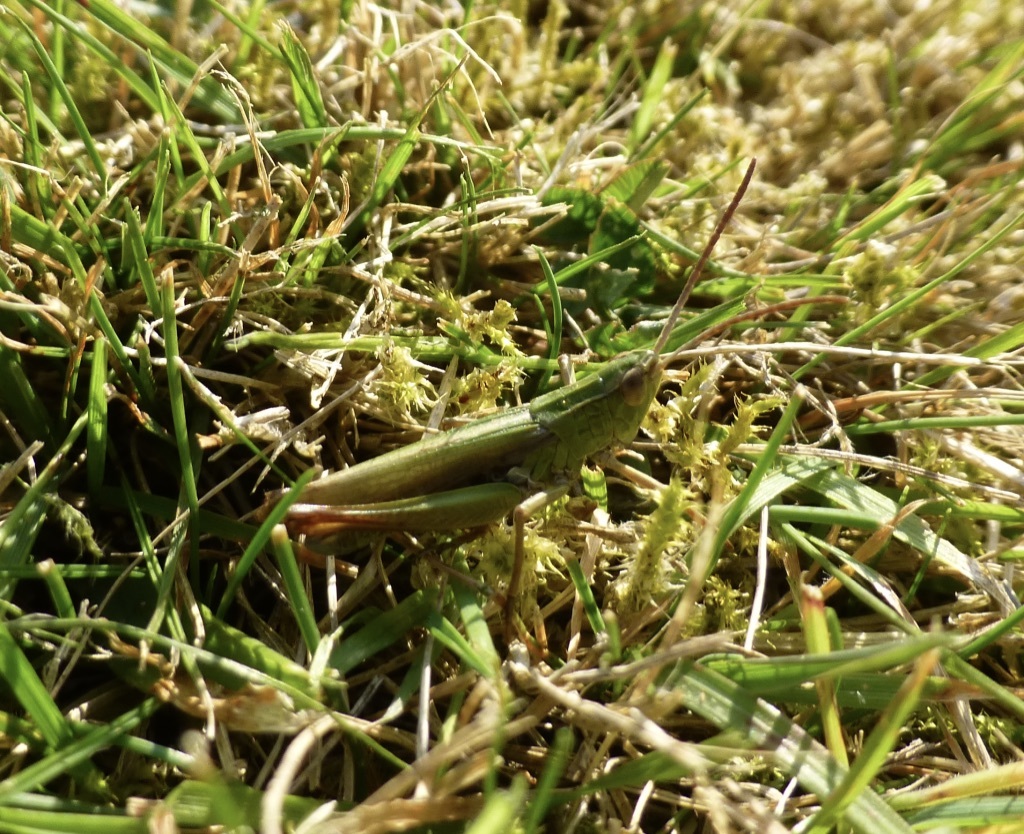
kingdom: Animalia
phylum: Arthropoda
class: Insecta
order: Orthoptera
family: Acrididae
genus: Chorthippus
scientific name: Chorthippus albomarginatus
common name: Lesser marsh grasshopper
